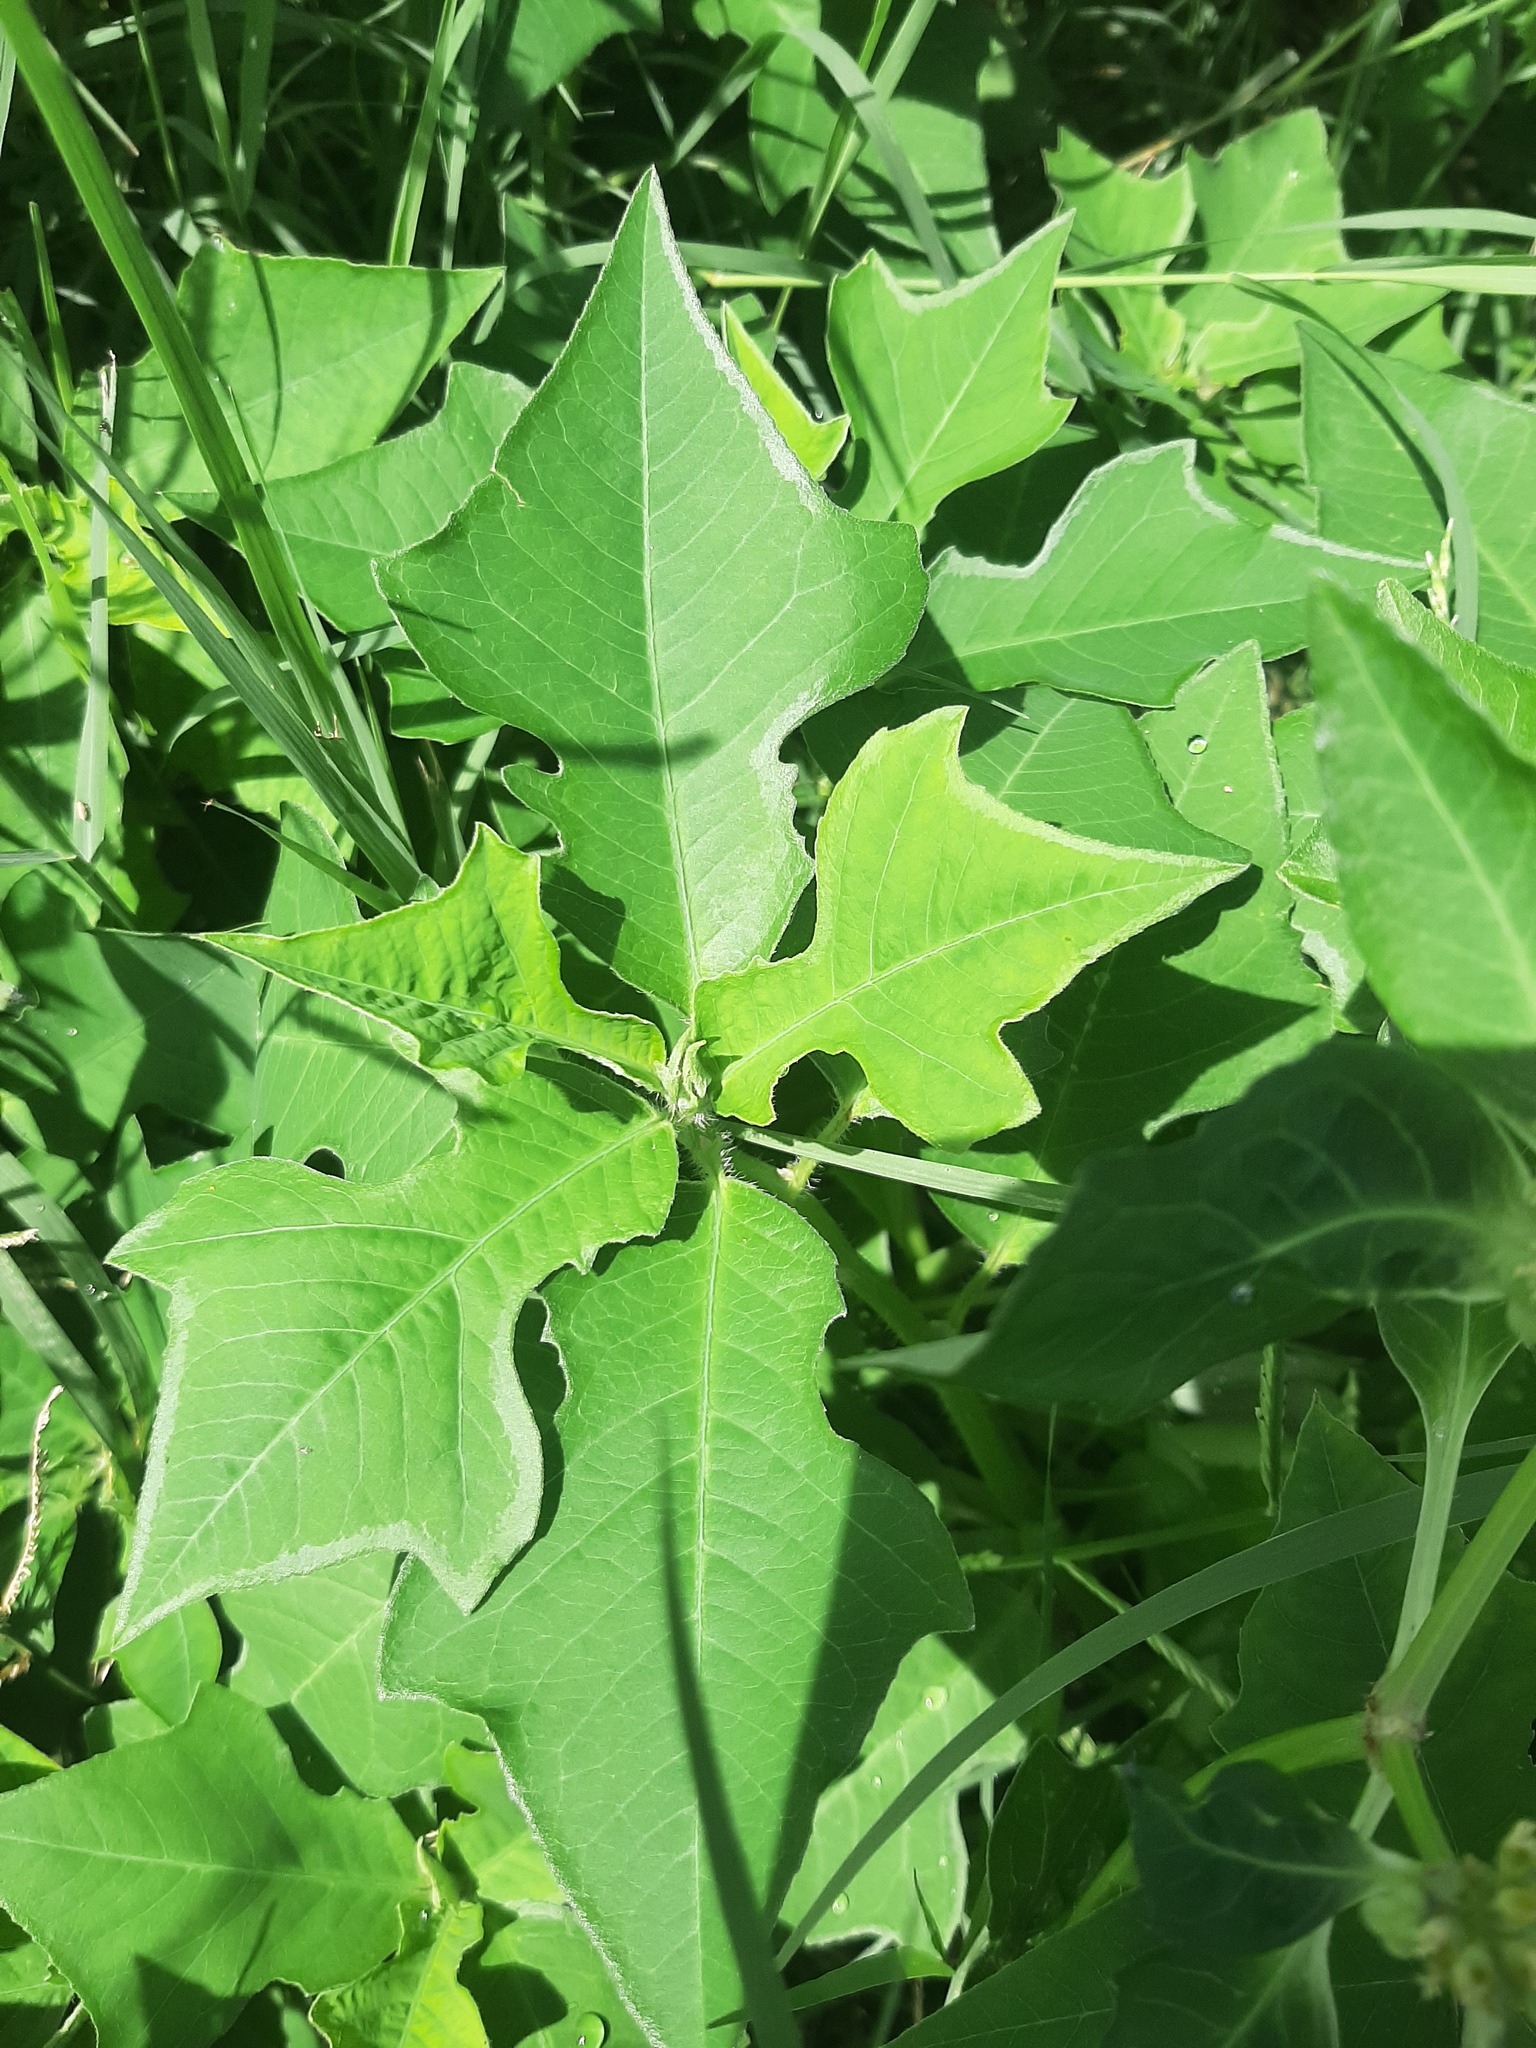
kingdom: Plantae
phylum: Tracheophyta
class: Magnoliopsida
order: Malpighiales
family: Euphorbiaceae
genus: Euphorbia
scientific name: Euphorbia heterophylla
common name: Mexican fireplant
